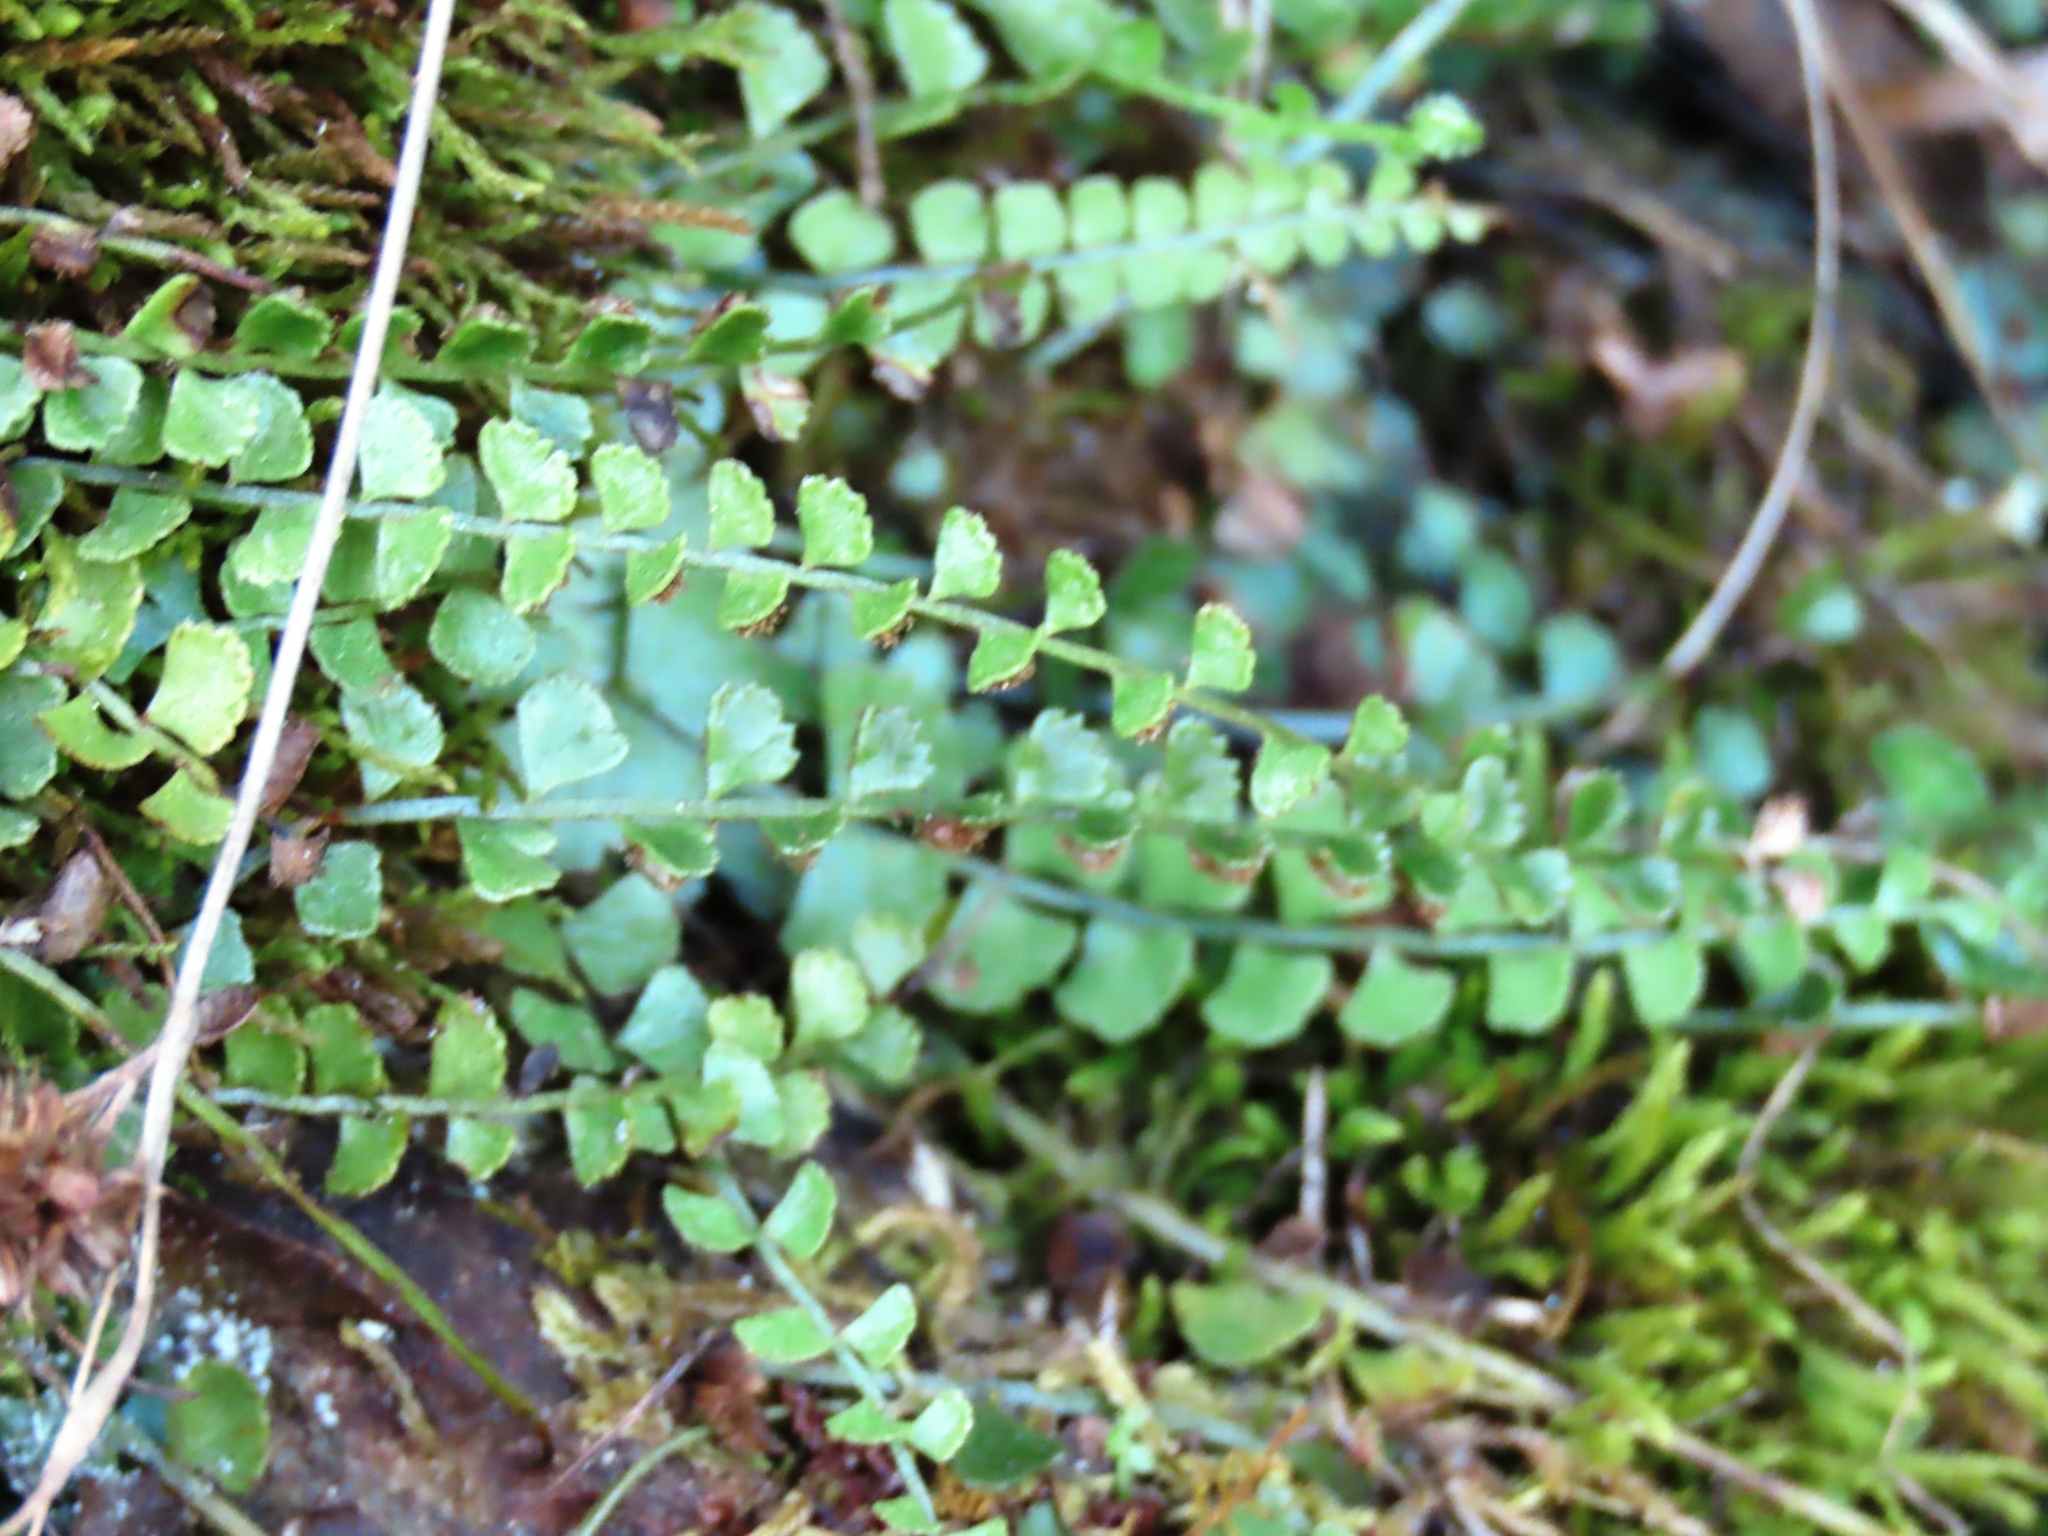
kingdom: Plantae
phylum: Tracheophyta
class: Polypodiopsida
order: Polypodiales
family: Aspleniaceae
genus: Asplenium
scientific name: Asplenium flabellifolium
